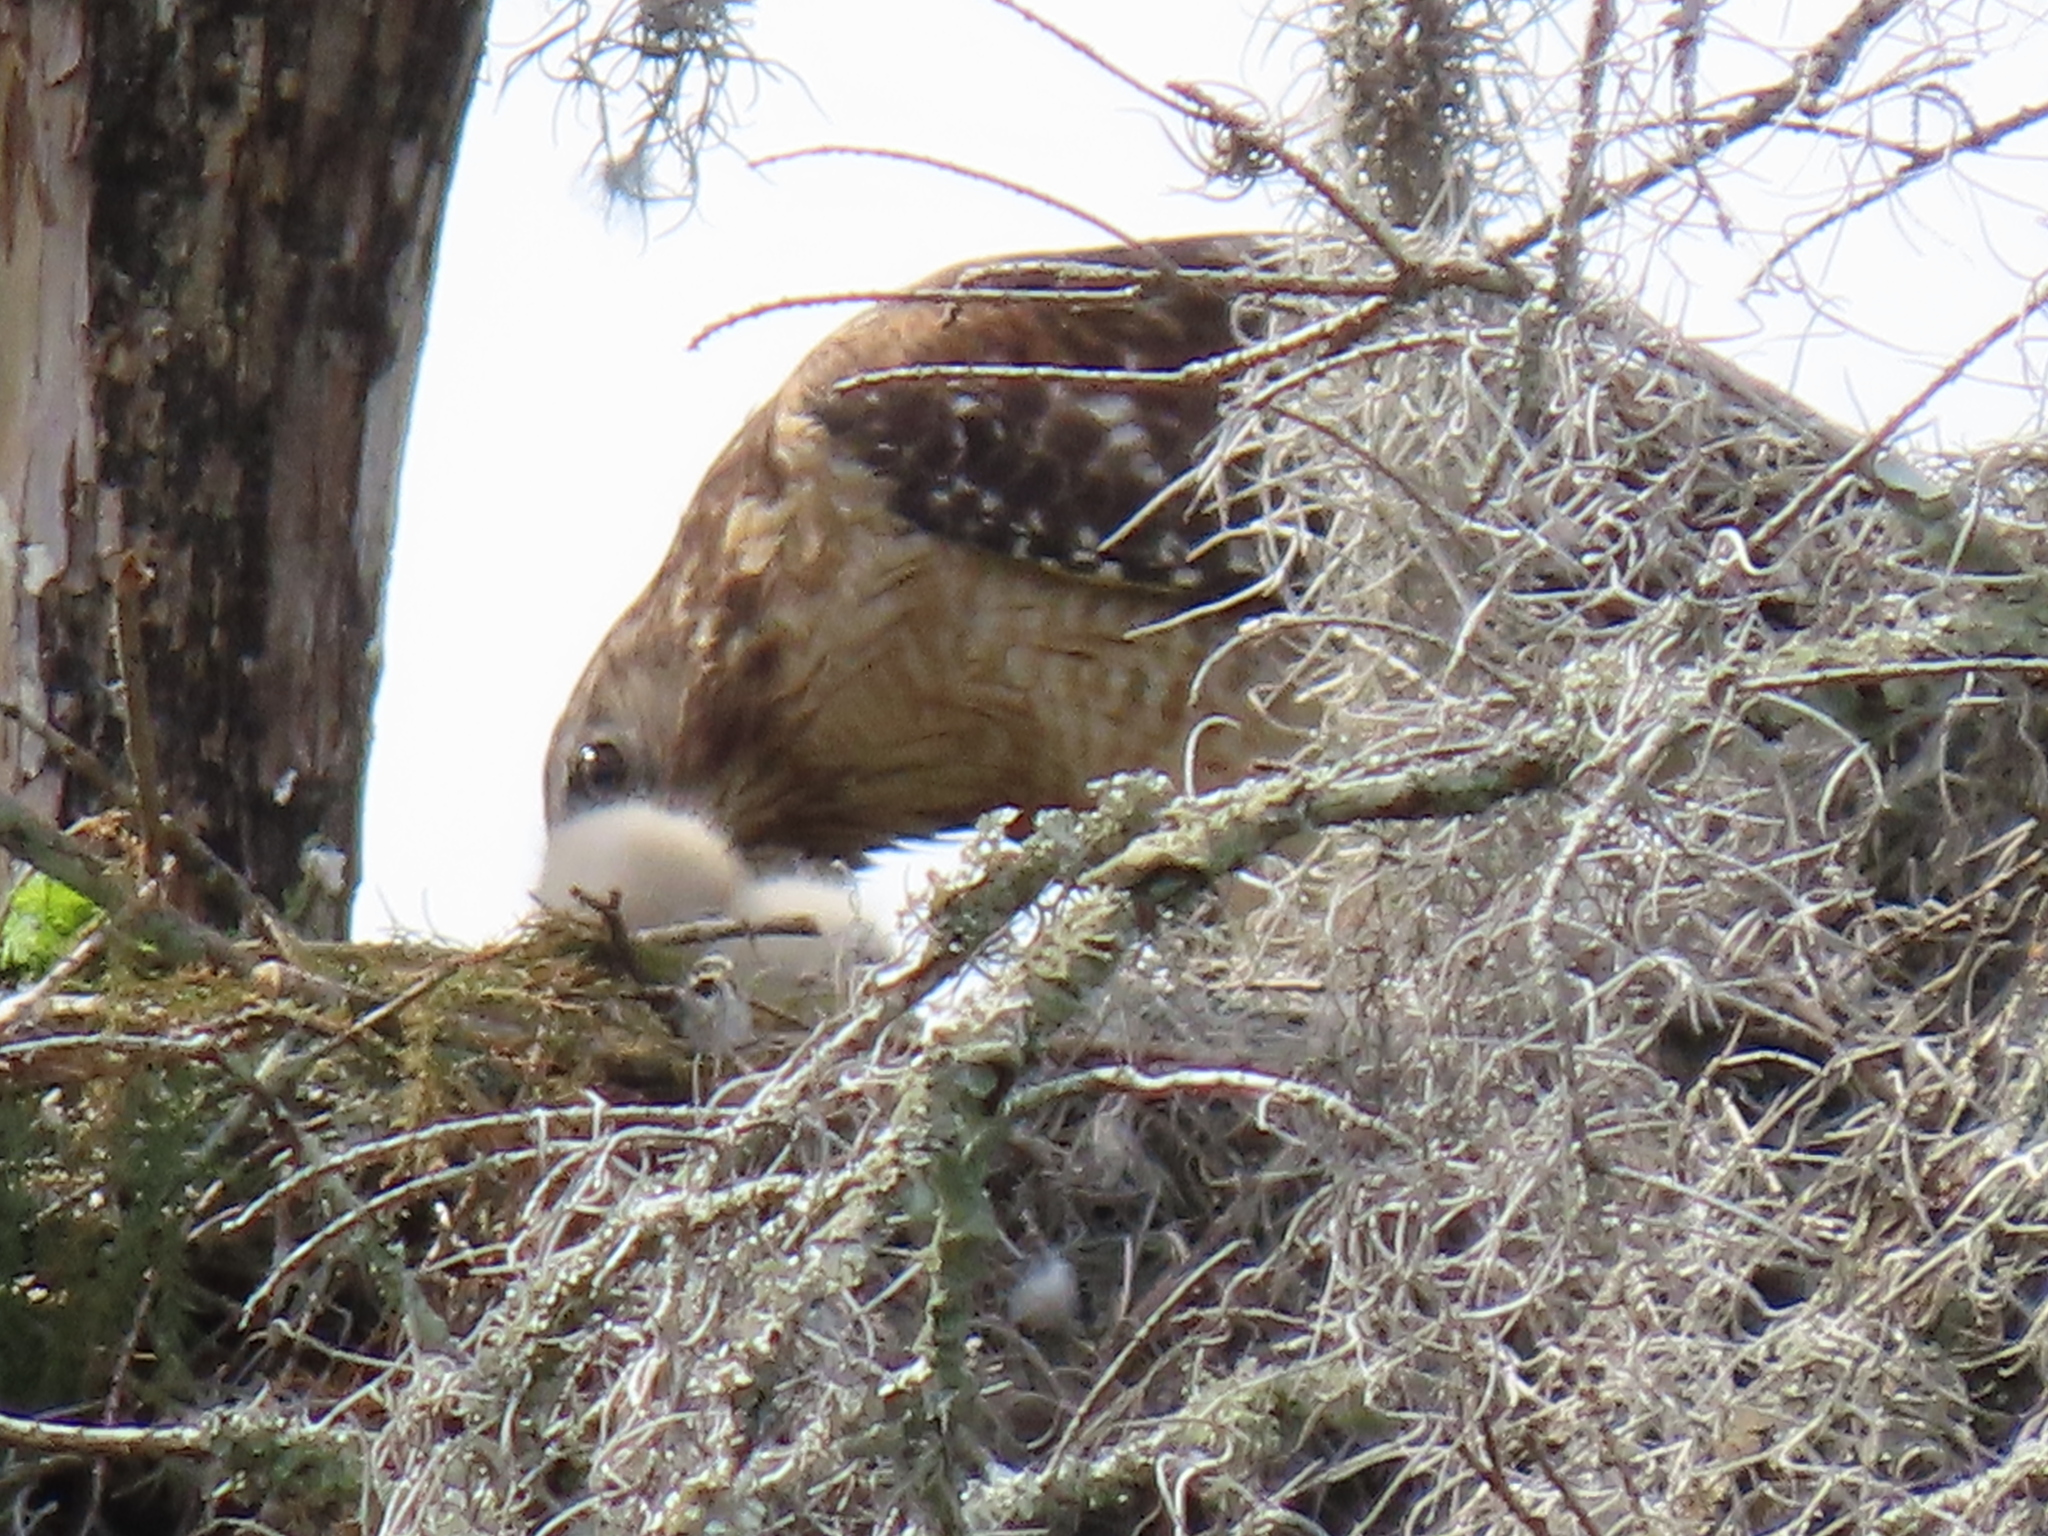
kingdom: Animalia
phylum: Chordata
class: Aves
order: Accipitriformes
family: Accipitridae
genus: Buteo
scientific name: Buteo lineatus
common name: Red-shouldered hawk
